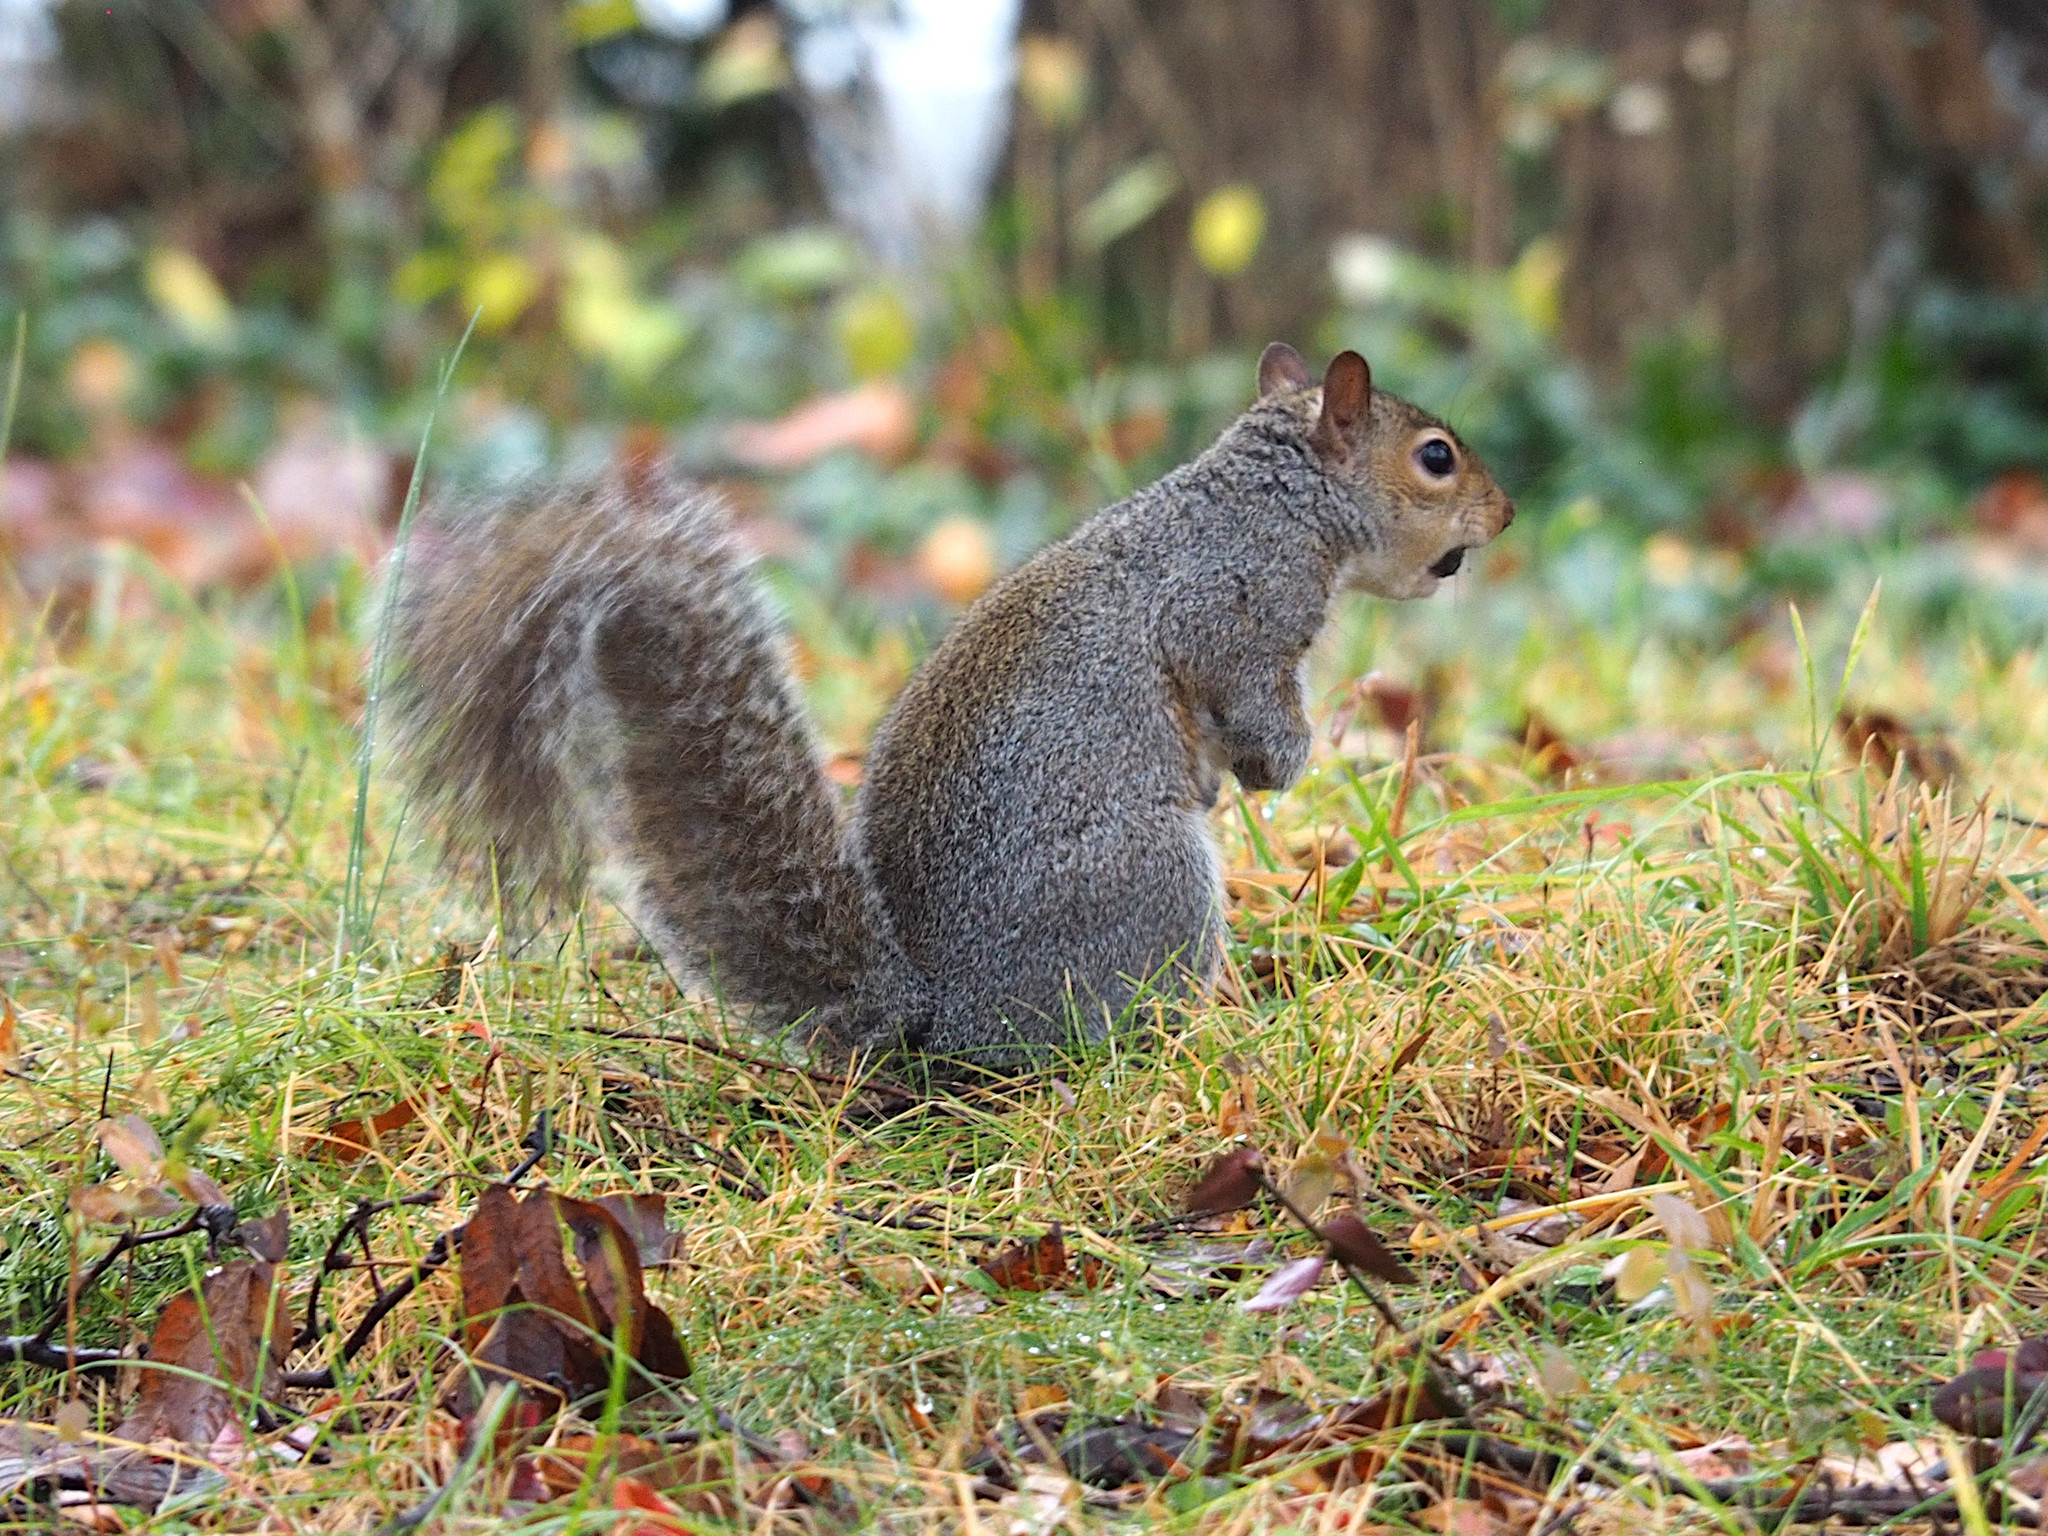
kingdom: Animalia
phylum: Chordata
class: Mammalia
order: Rodentia
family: Sciuridae
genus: Sciurus
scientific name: Sciurus carolinensis
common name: Eastern gray squirrel
